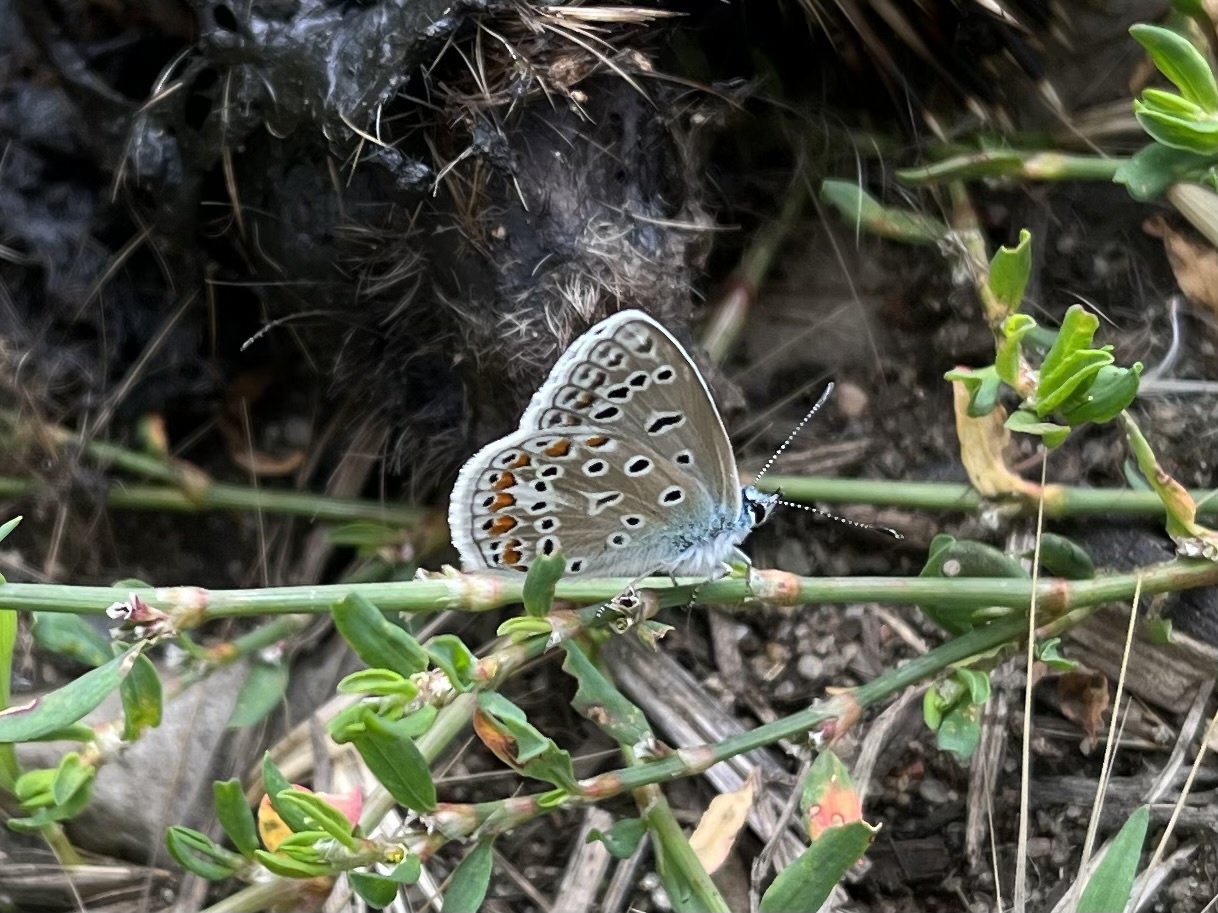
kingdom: Animalia
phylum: Arthropoda
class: Insecta
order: Lepidoptera
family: Lycaenidae
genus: Polyommatus
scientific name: Polyommatus icarus
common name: Common blue
